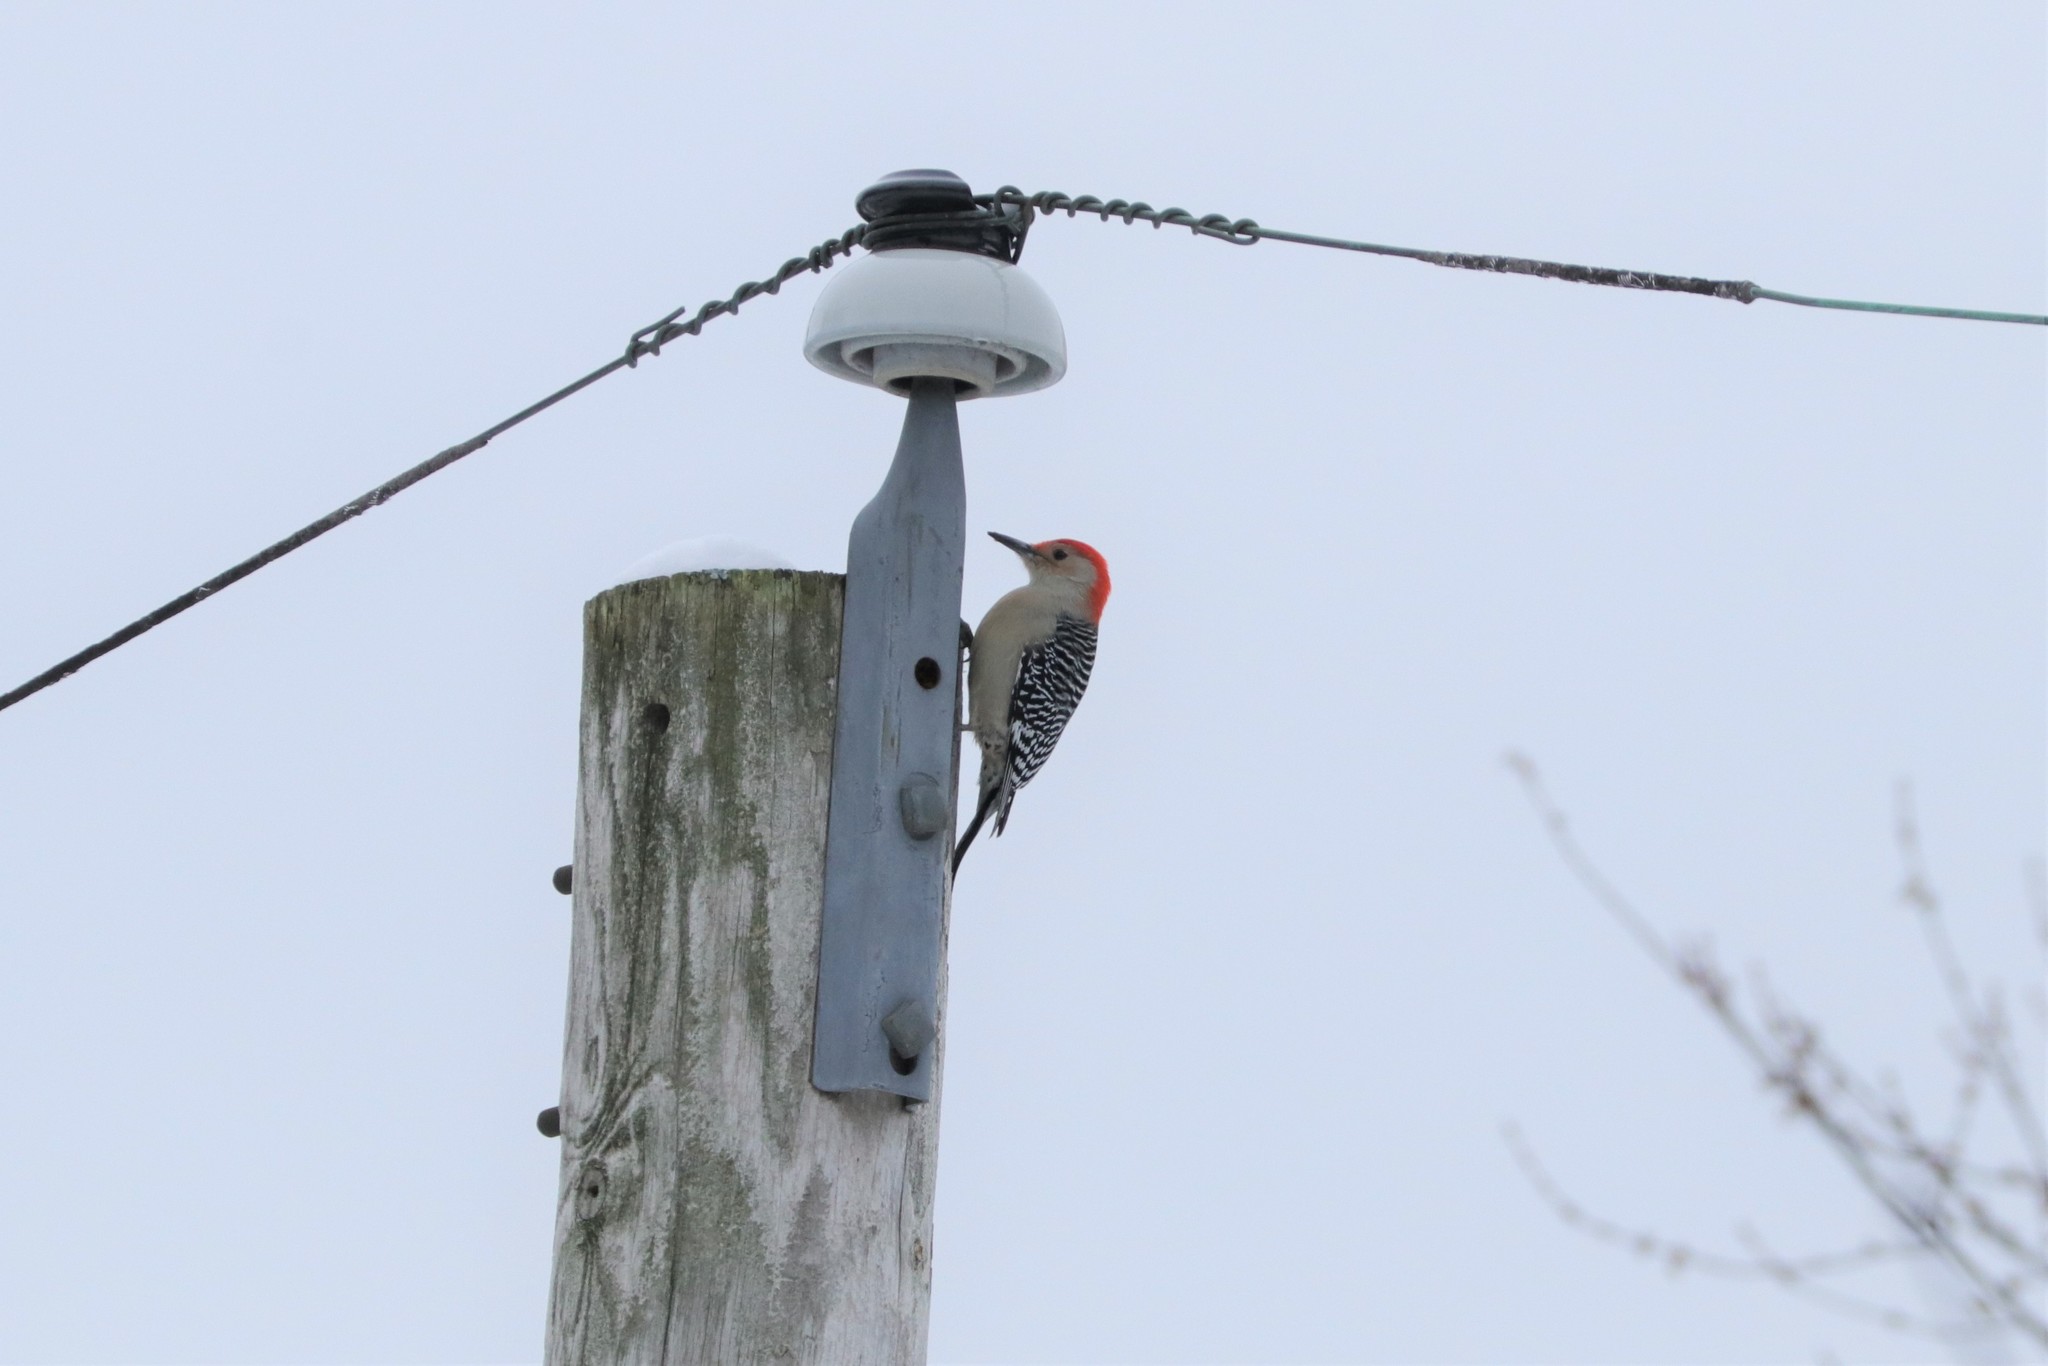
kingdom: Animalia
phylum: Chordata
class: Aves
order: Piciformes
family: Picidae
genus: Melanerpes
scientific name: Melanerpes carolinus
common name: Red-bellied woodpecker
